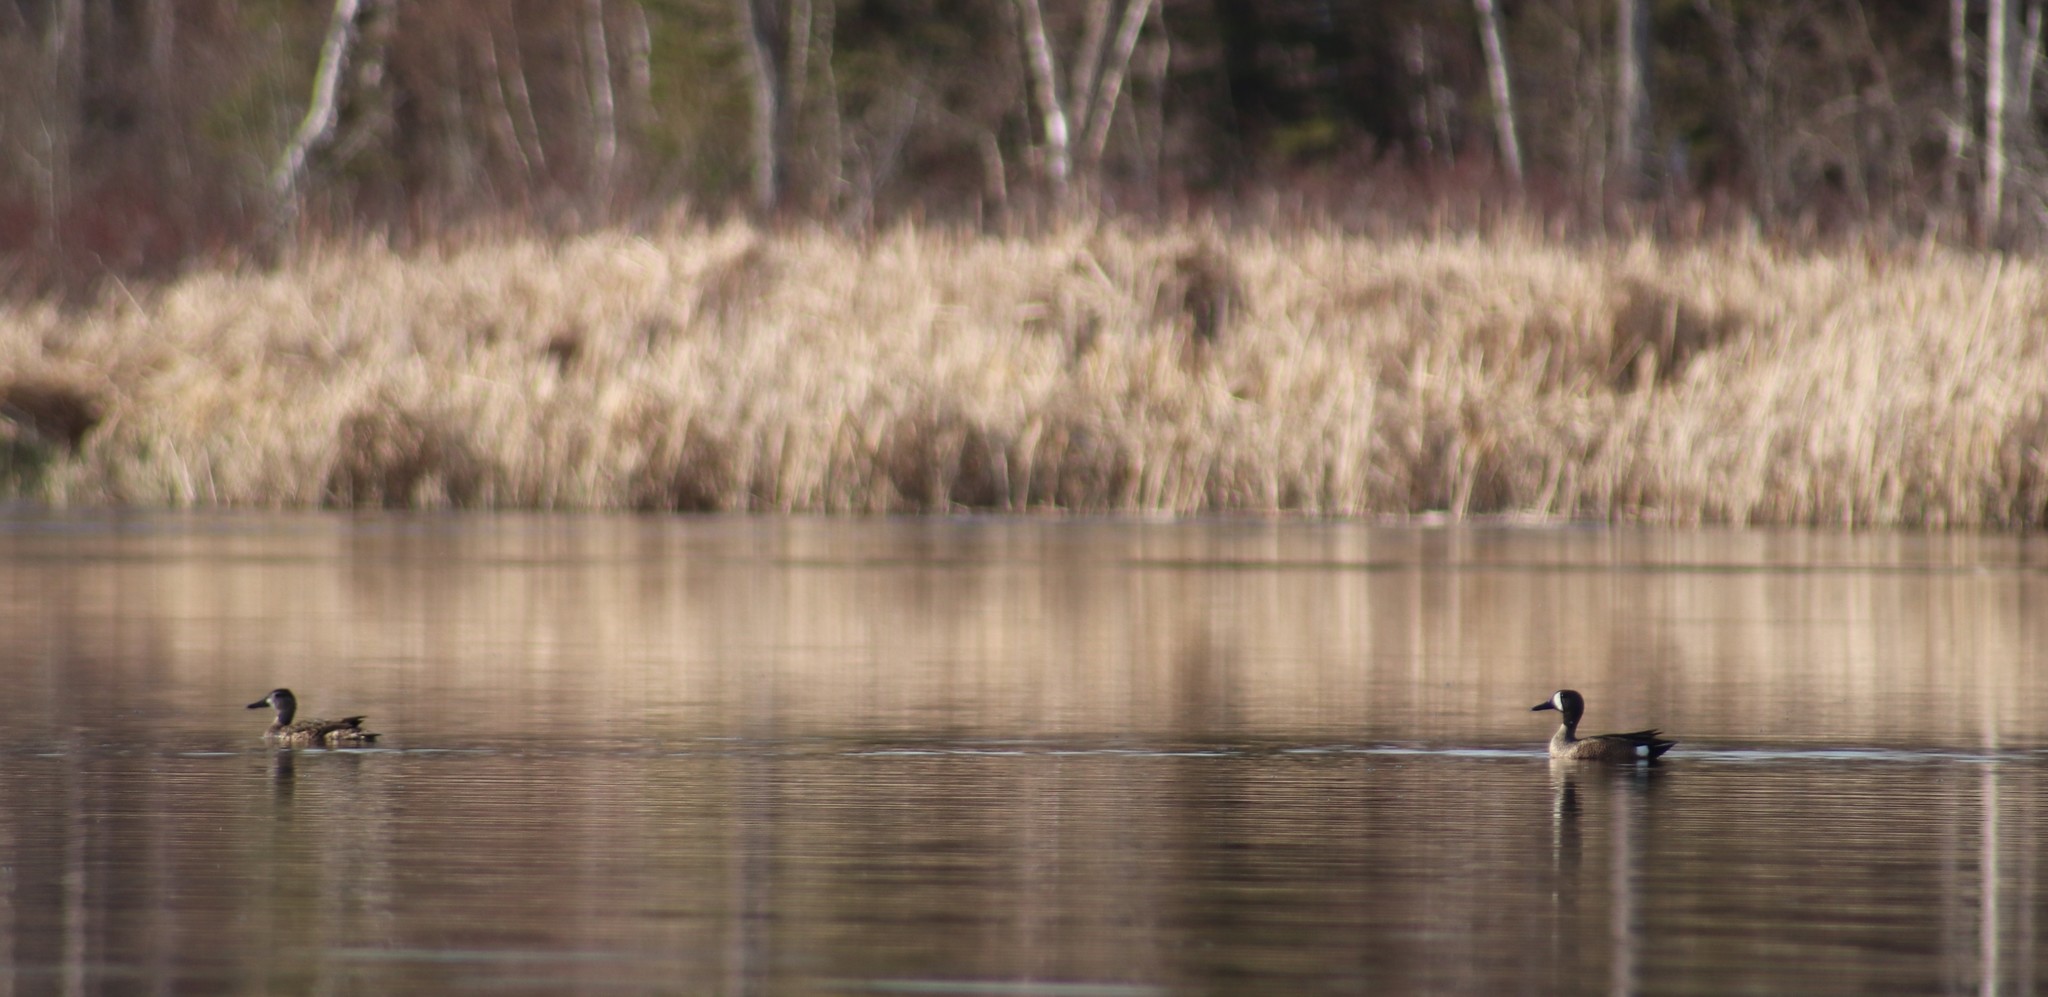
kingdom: Animalia
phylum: Chordata
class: Aves
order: Anseriformes
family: Anatidae
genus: Spatula
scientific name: Spatula discors
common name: Blue-winged teal
